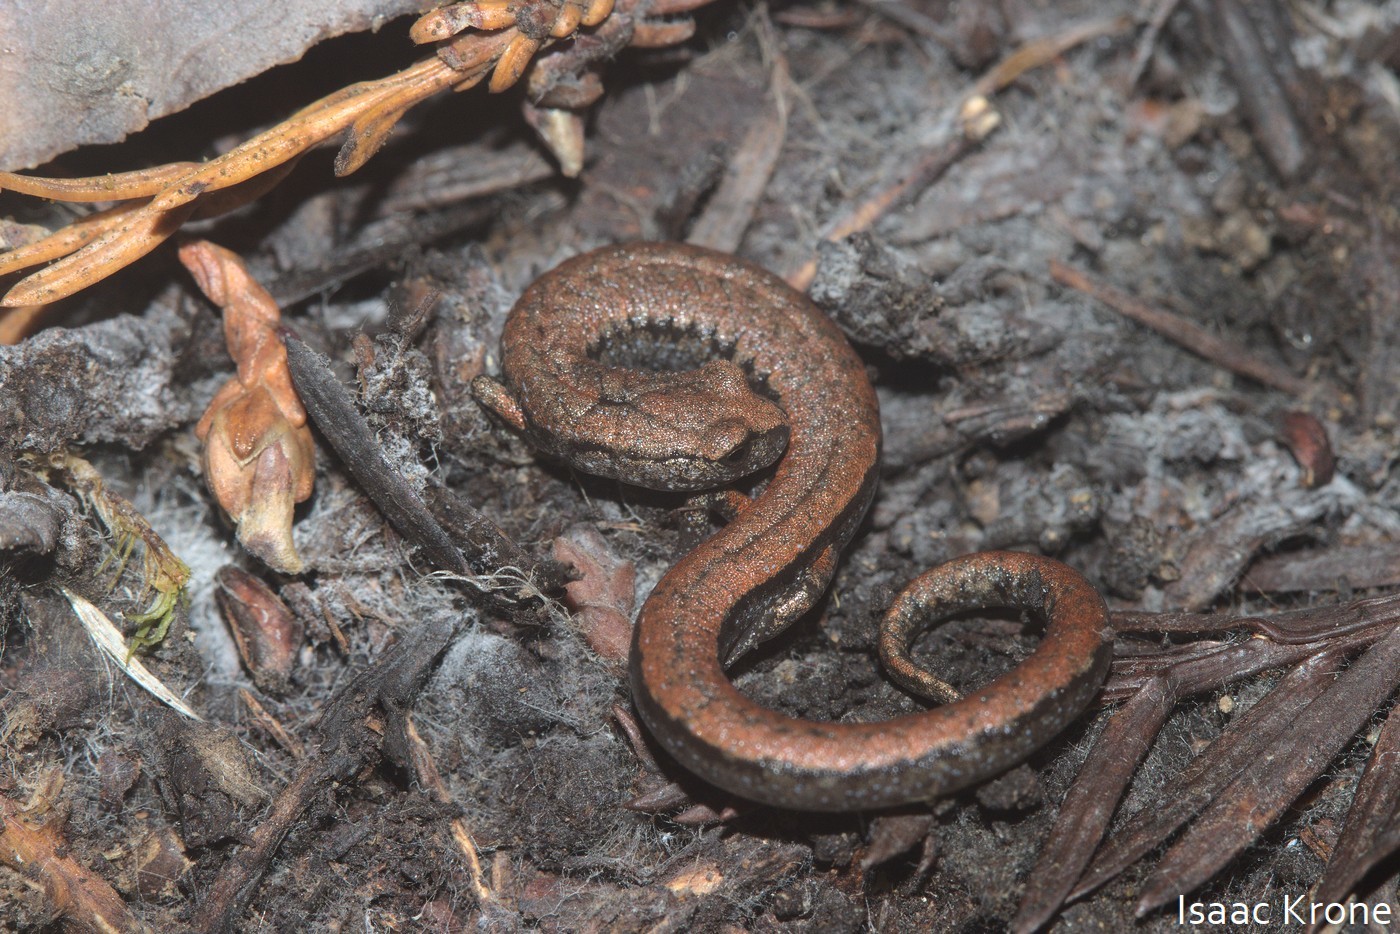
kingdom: Animalia
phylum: Chordata
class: Amphibia
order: Caudata
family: Plethodontidae
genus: Batrachoseps
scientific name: Batrachoseps luciae
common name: Santa lucia mountains slender salamander
